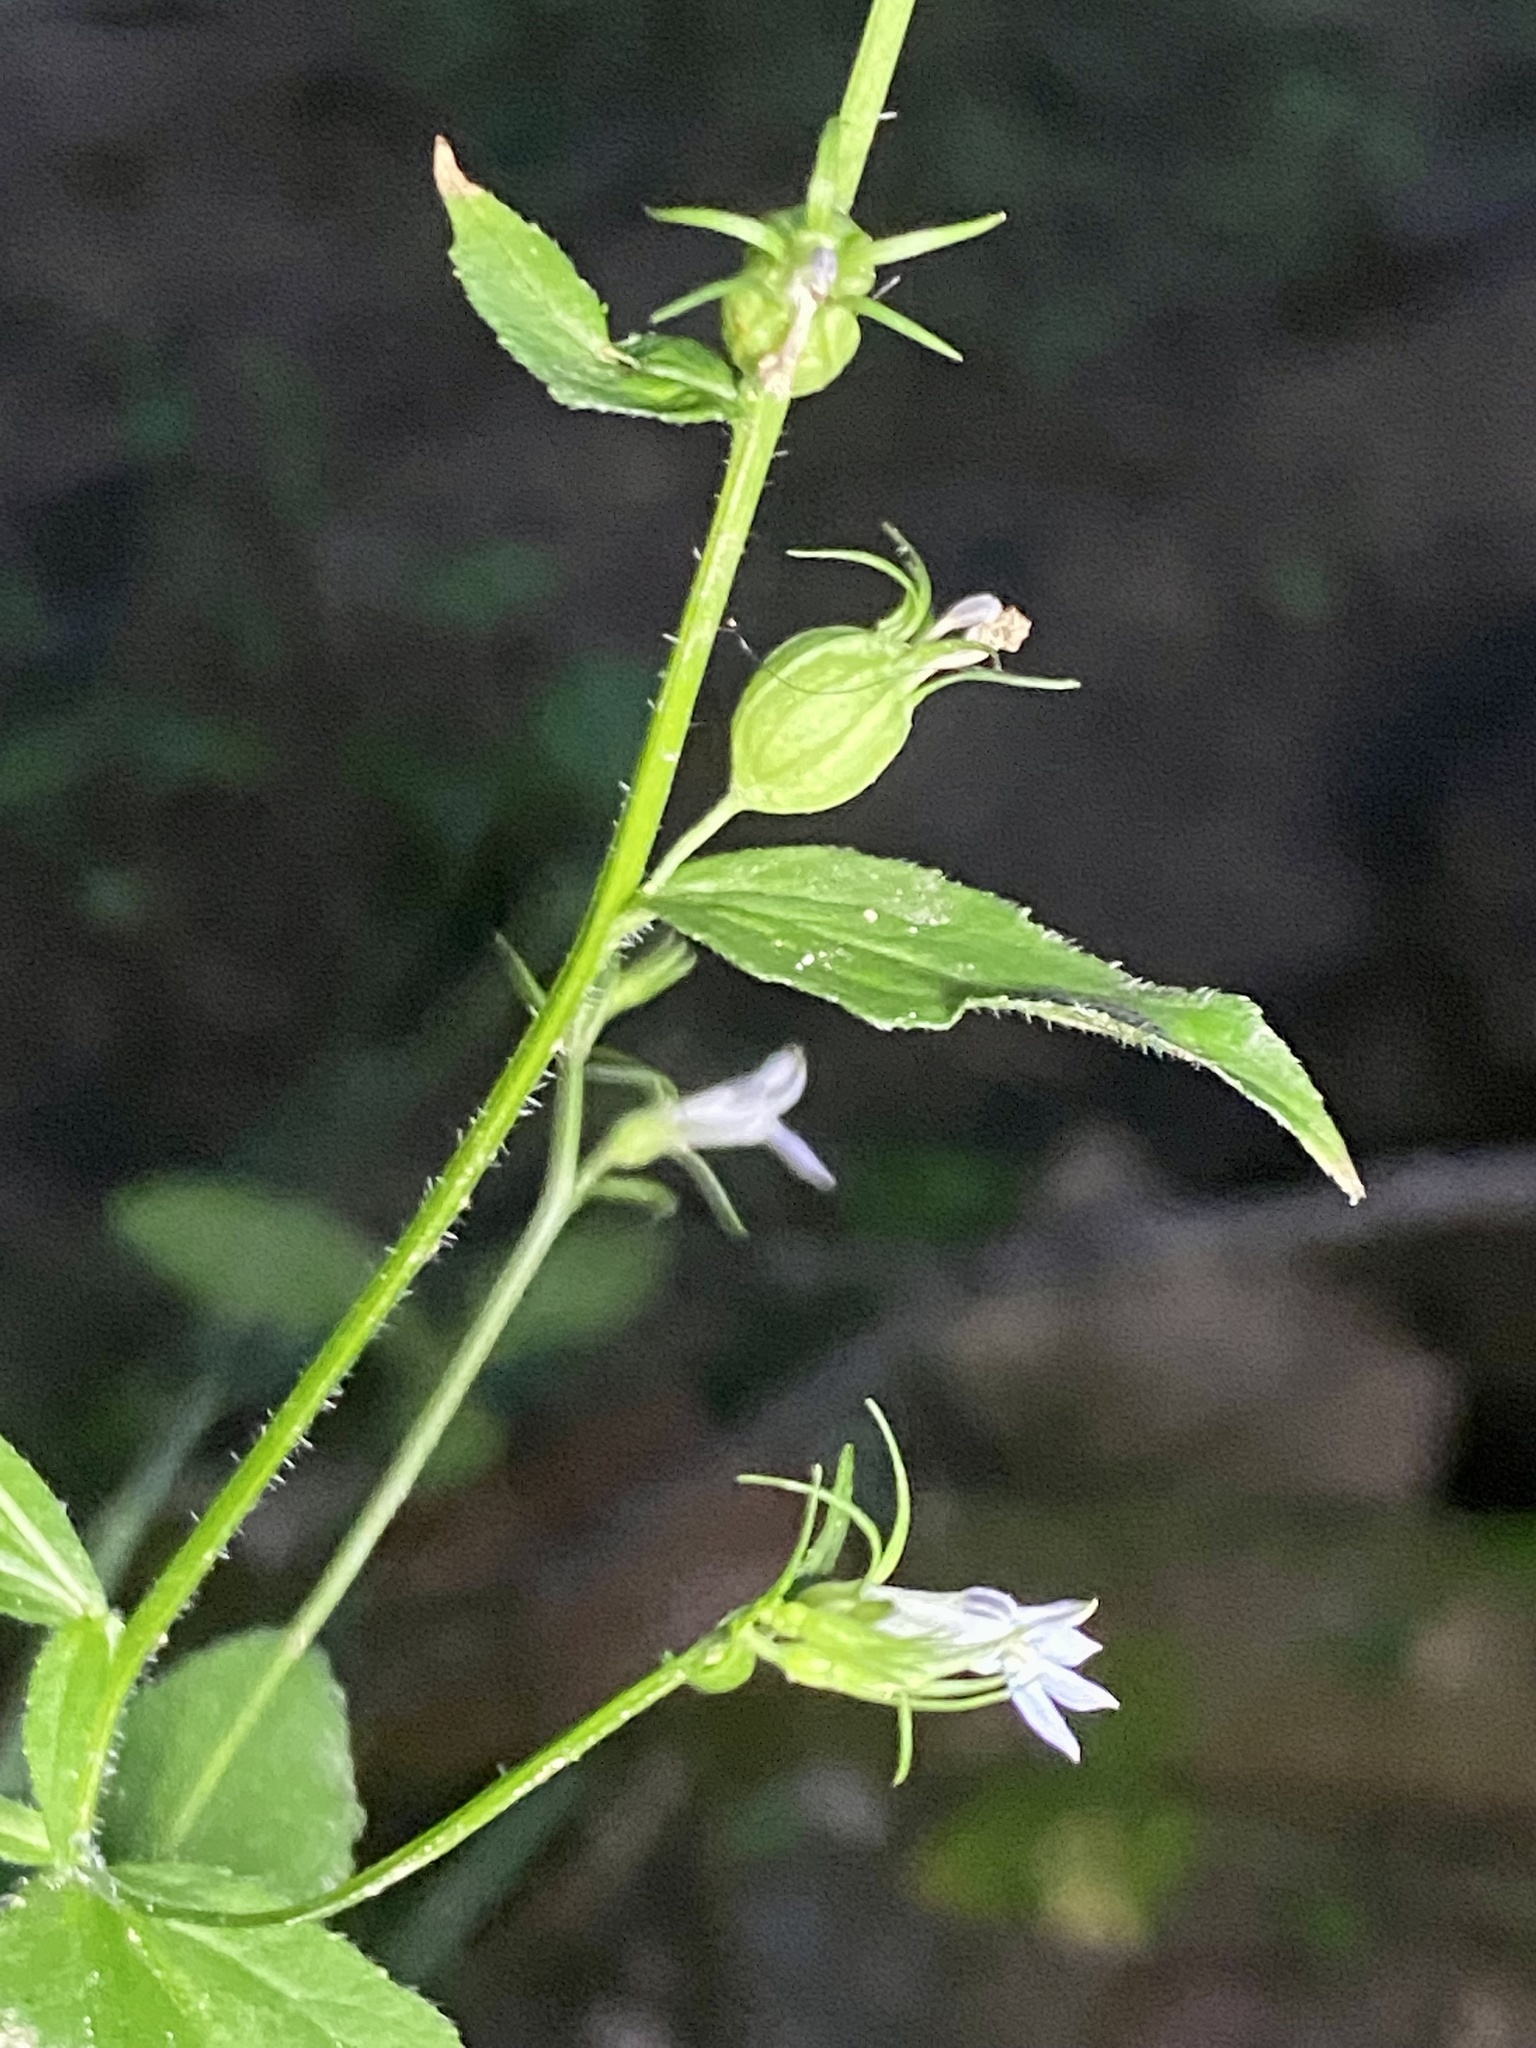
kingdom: Plantae
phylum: Tracheophyta
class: Magnoliopsida
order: Asterales
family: Campanulaceae
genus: Lobelia
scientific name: Lobelia inflata
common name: Indian tobacco
